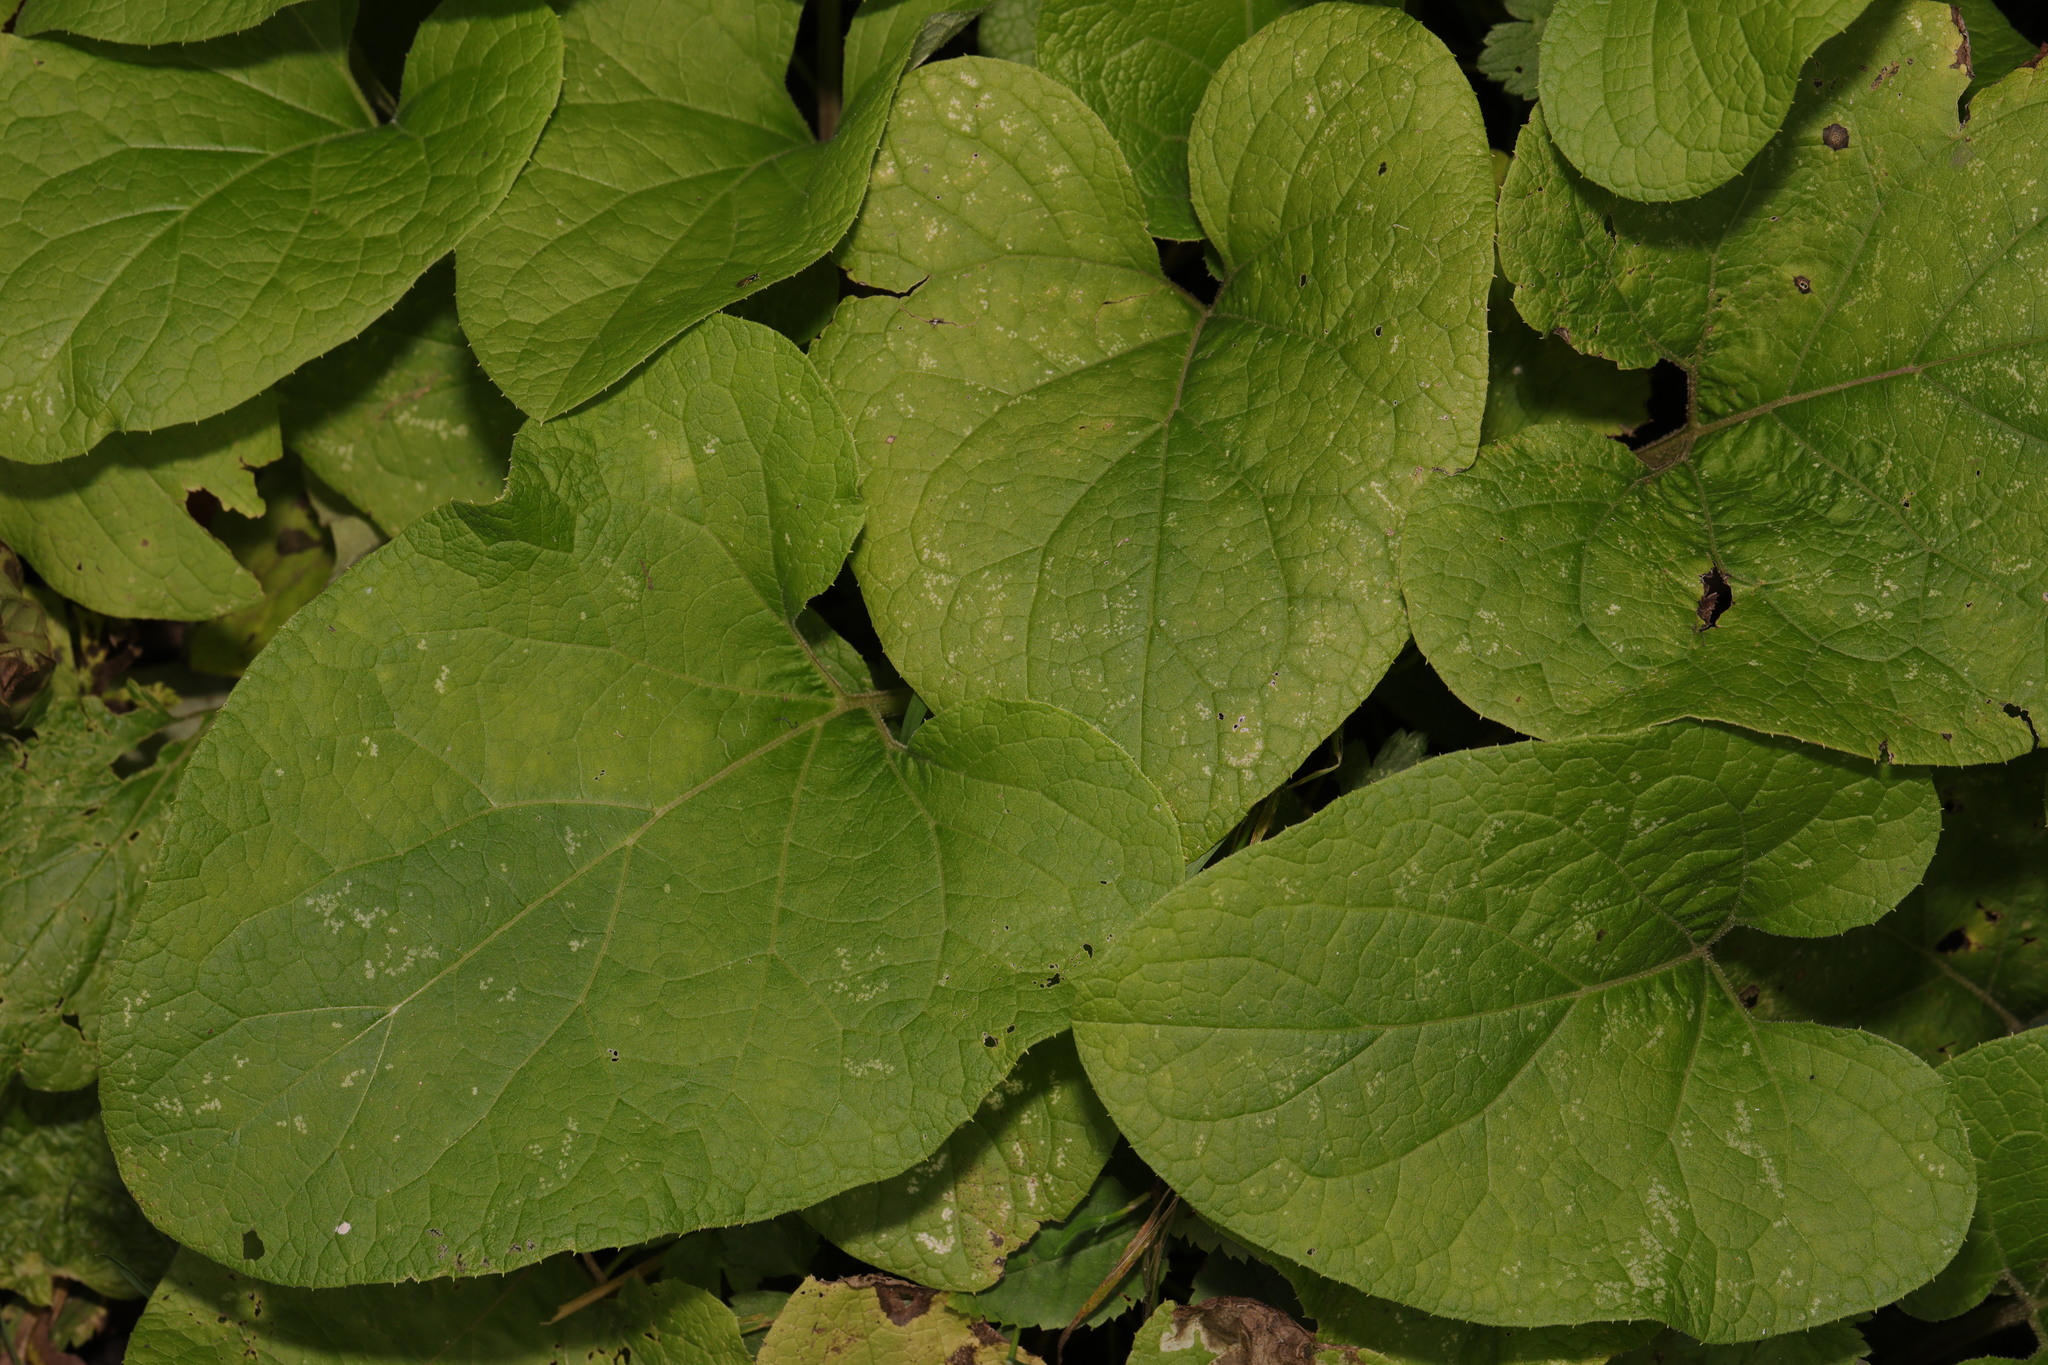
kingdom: Plantae
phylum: Tracheophyta
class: Magnoliopsida
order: Asterales
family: Asteraceae
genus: Arctium
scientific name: Arctium minus
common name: Lesser burdock
